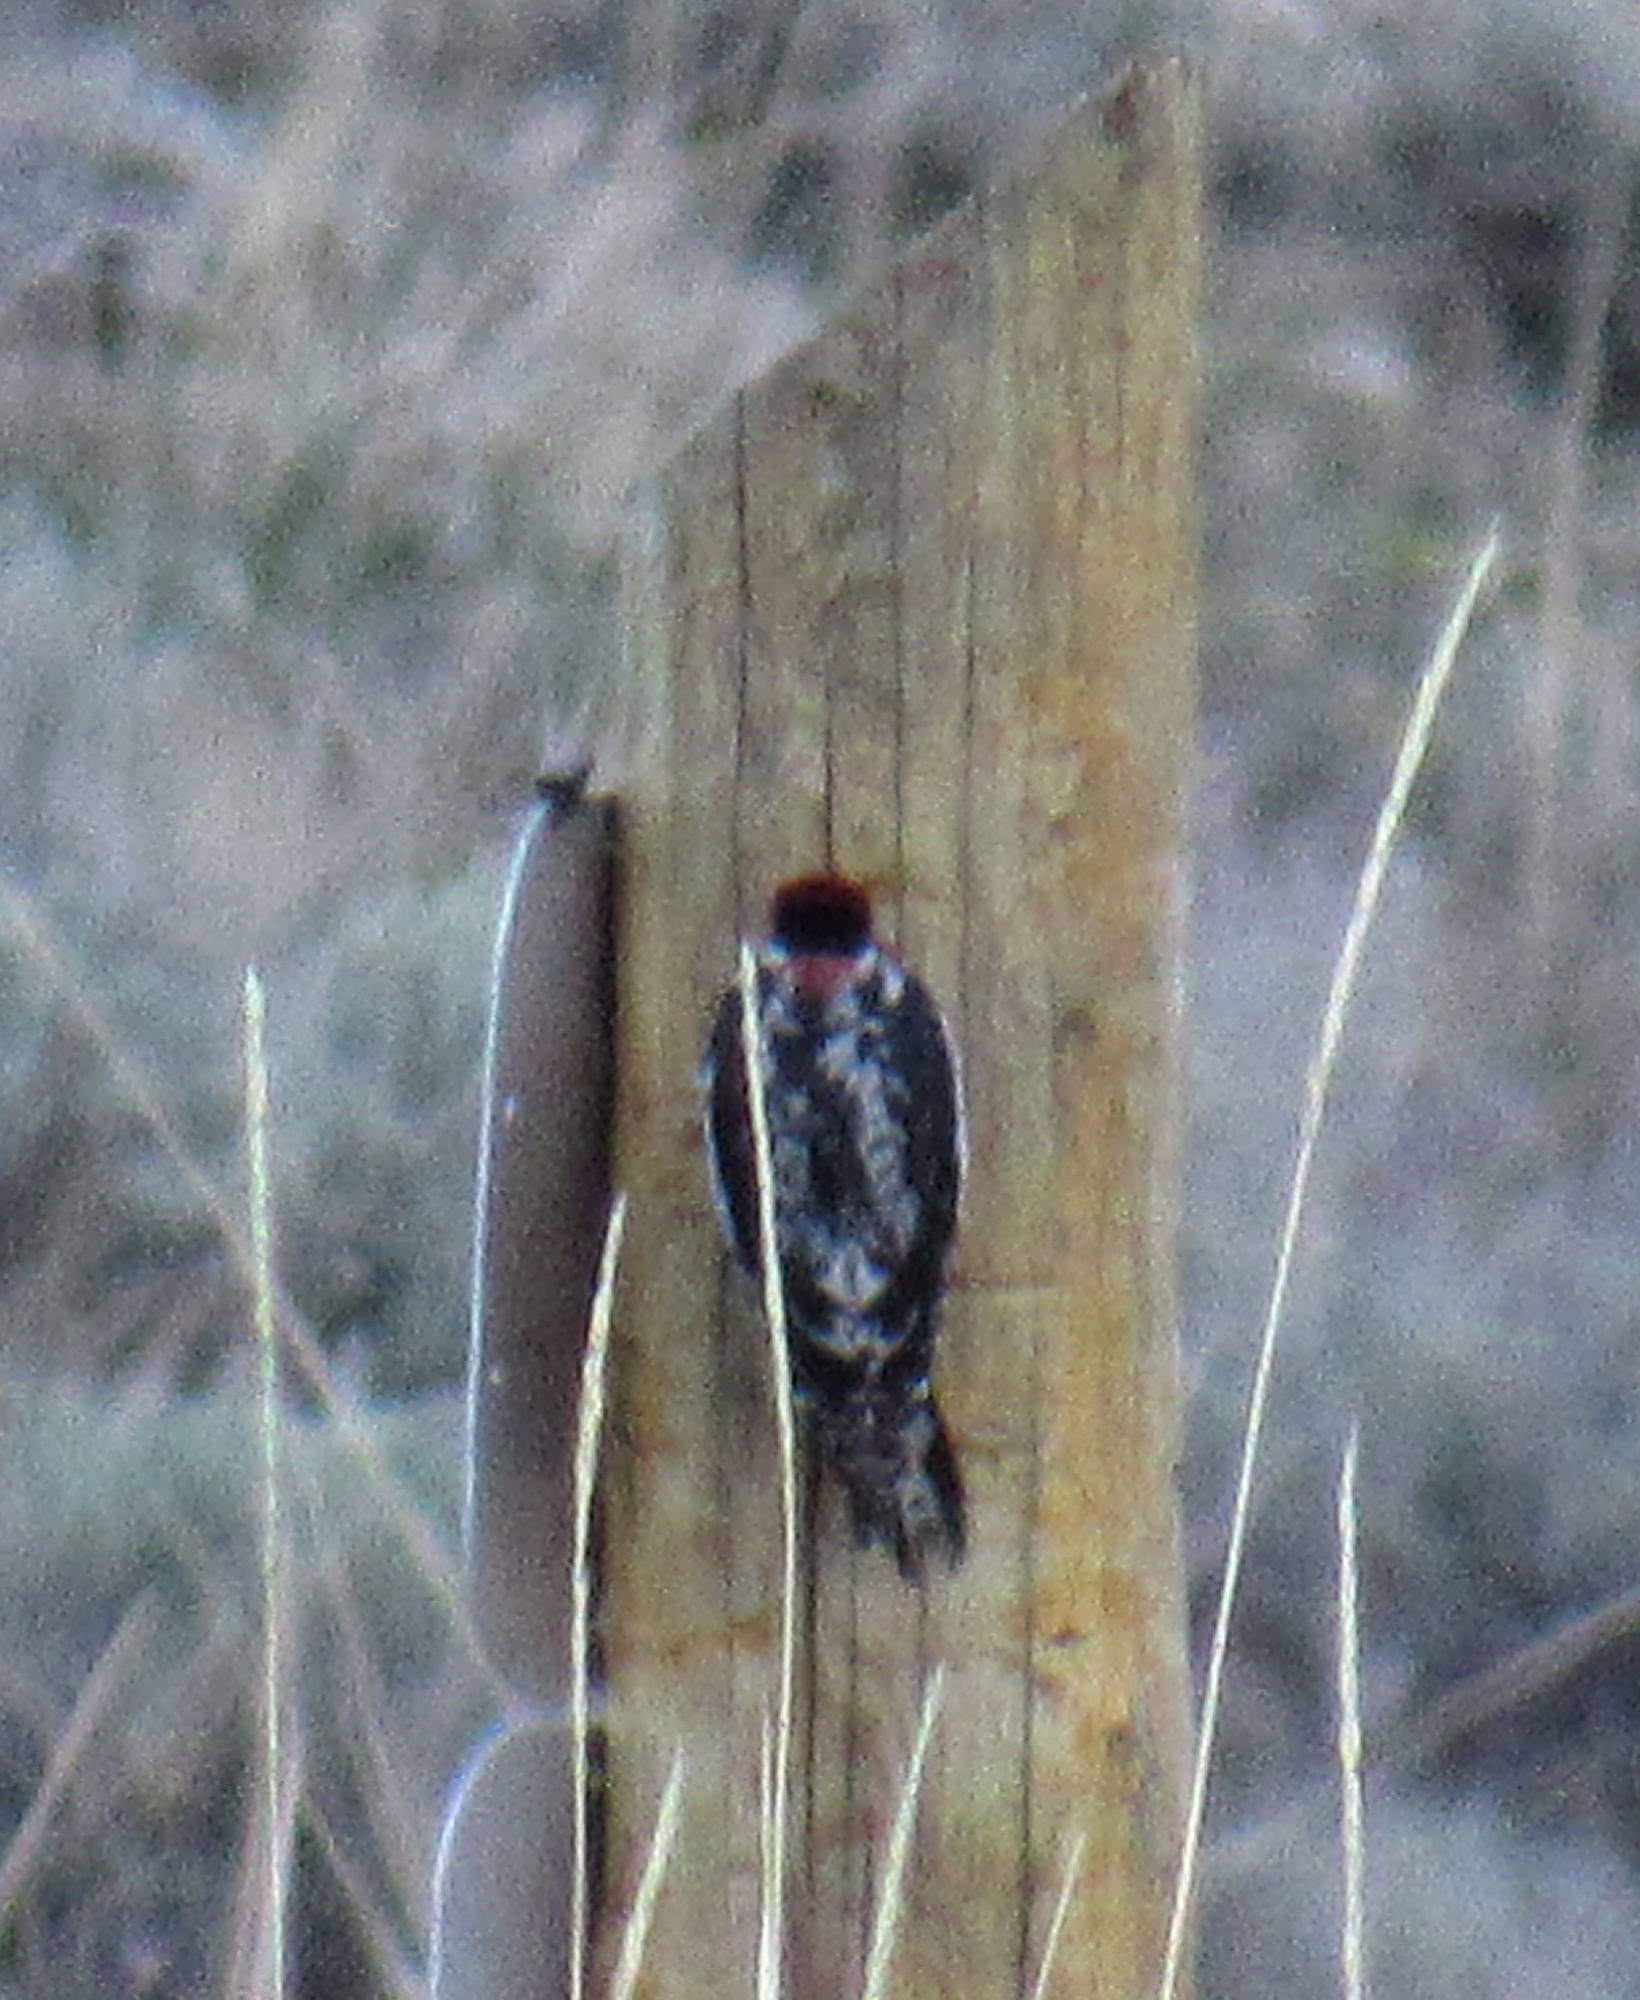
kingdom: Animalia
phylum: Chordata
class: Aves
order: Piciformes
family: Picidae
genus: Sphyrapicus
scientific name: Sphyrapicus nuchalis
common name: Red-naped sapsucker
